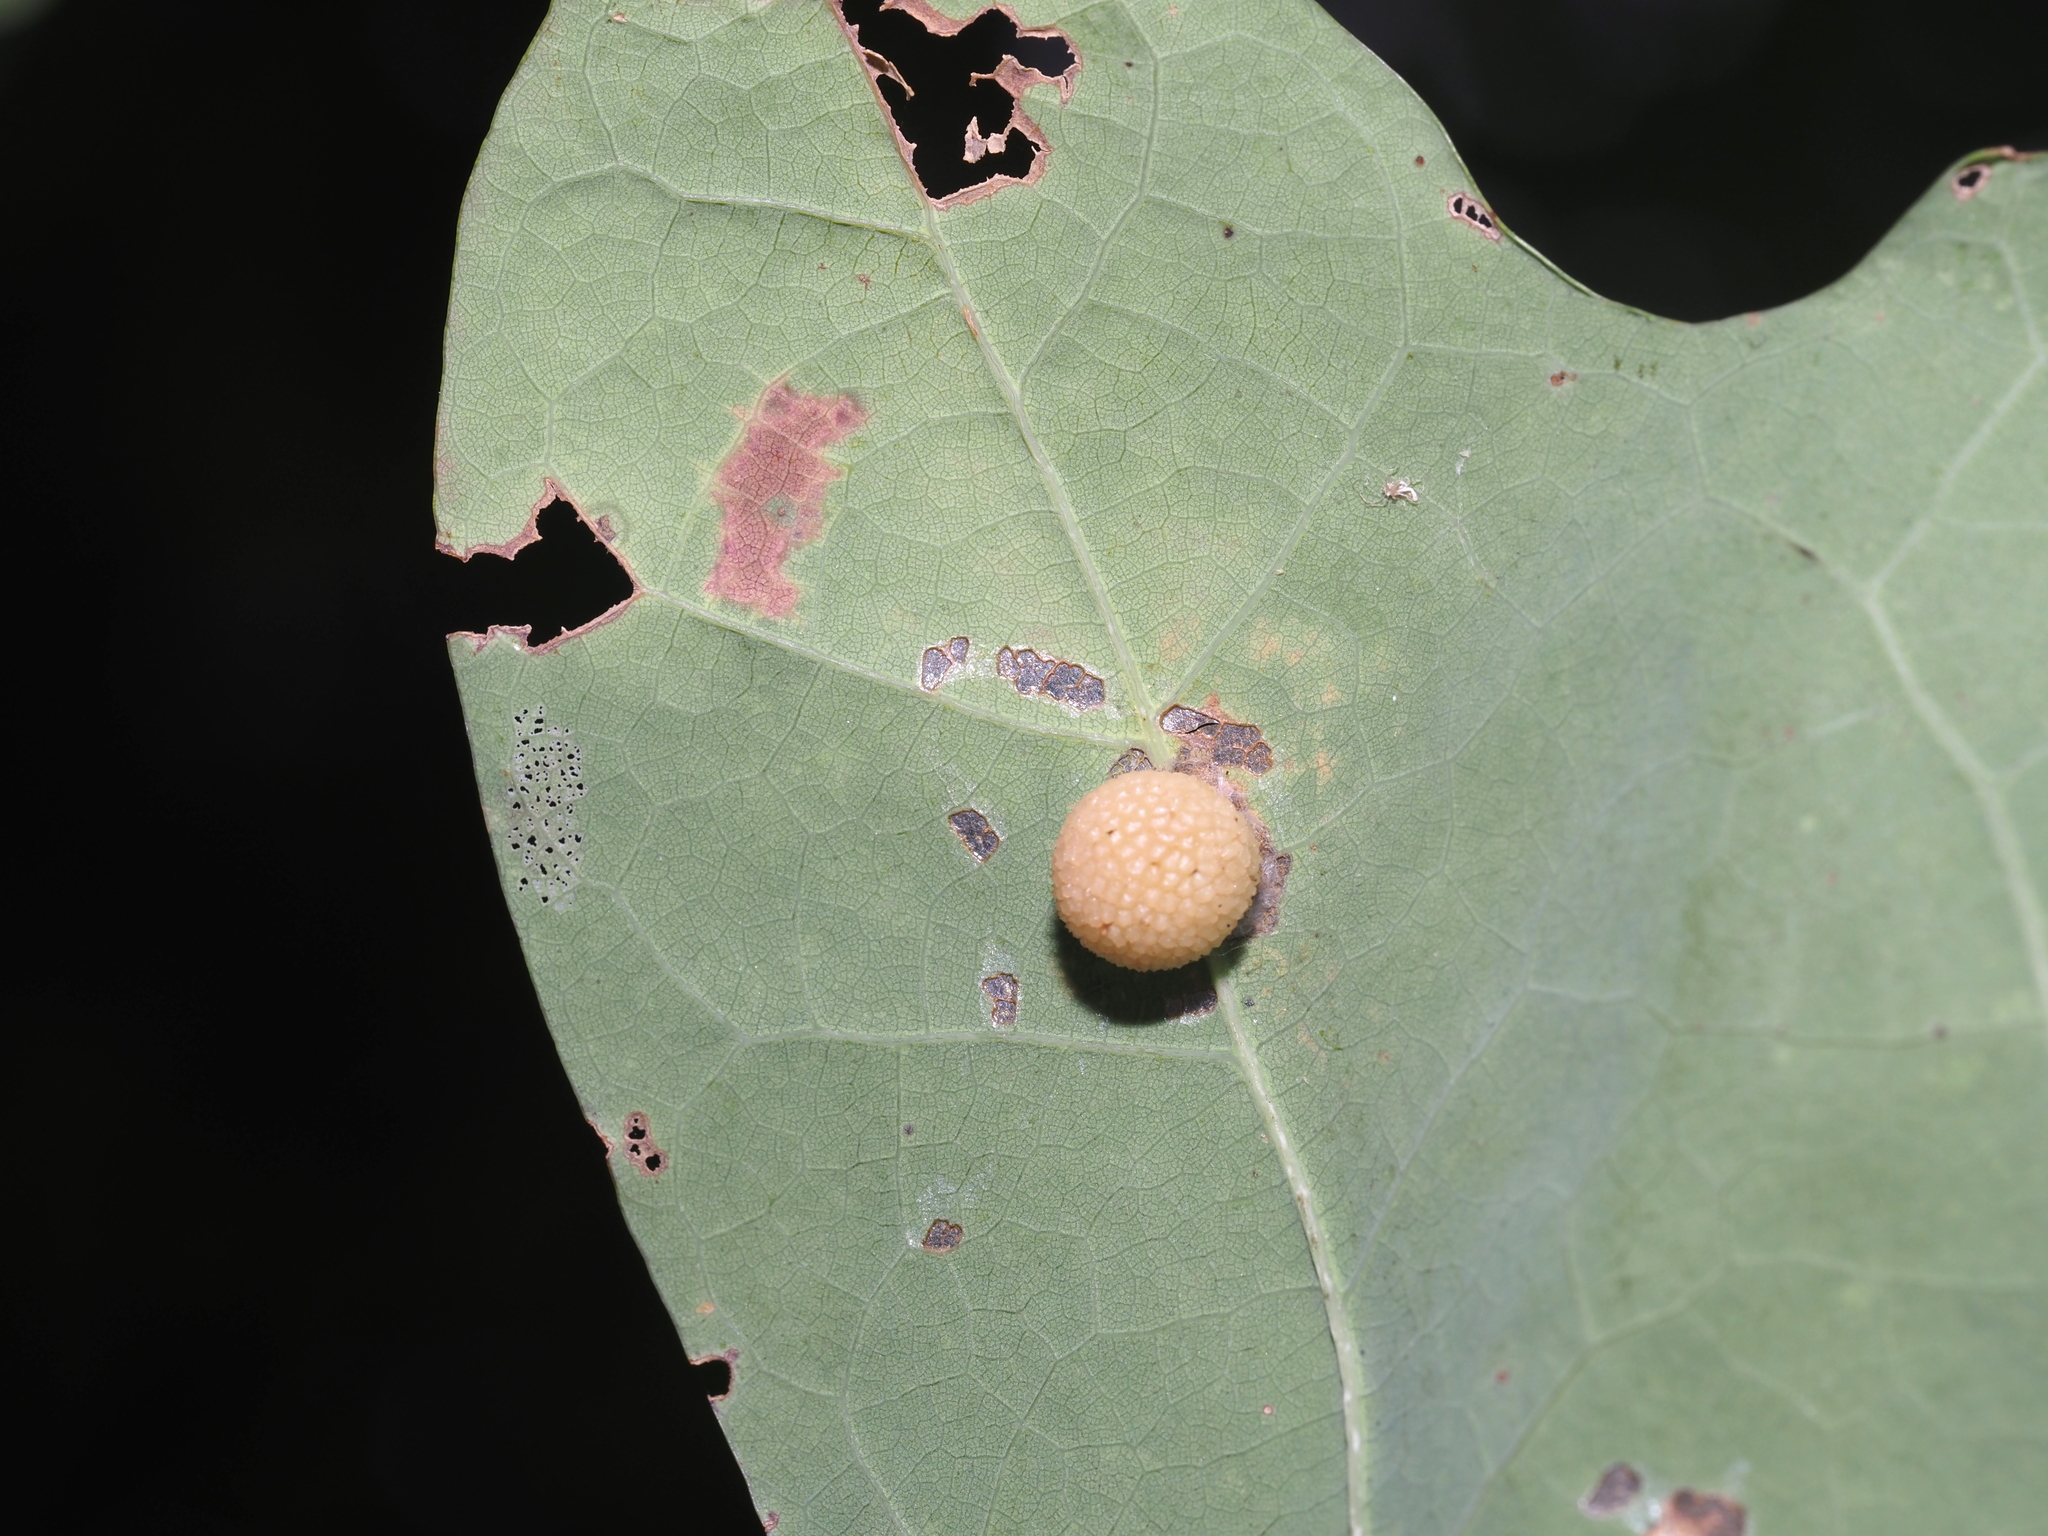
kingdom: Animalia
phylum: Arthropoda
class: Insecta
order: Hymenoptera
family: Cynipidae
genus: Acraspis
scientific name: Acraspis
